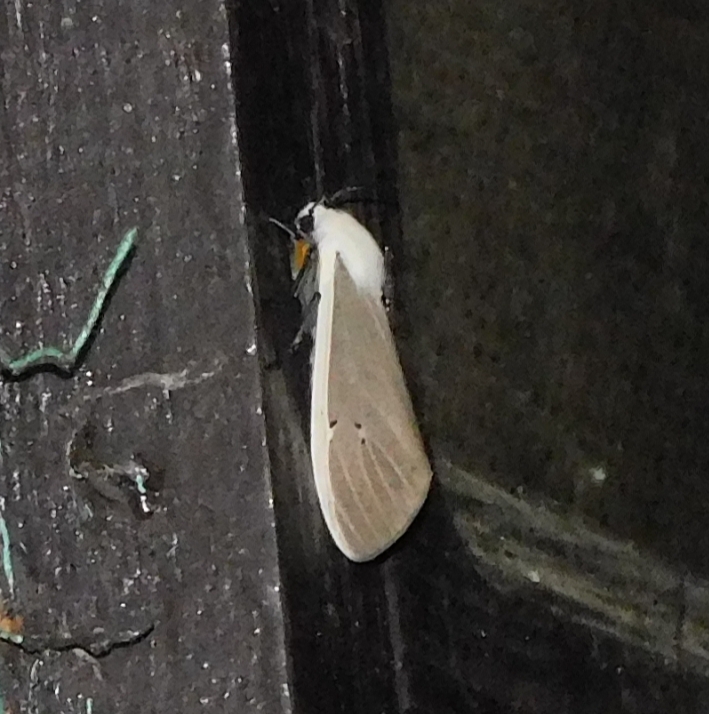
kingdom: Animalia
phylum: Arthropoda
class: Insecta
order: Lepidoptera
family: Erebidae
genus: Creatonotos
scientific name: Creatonotos transiens
